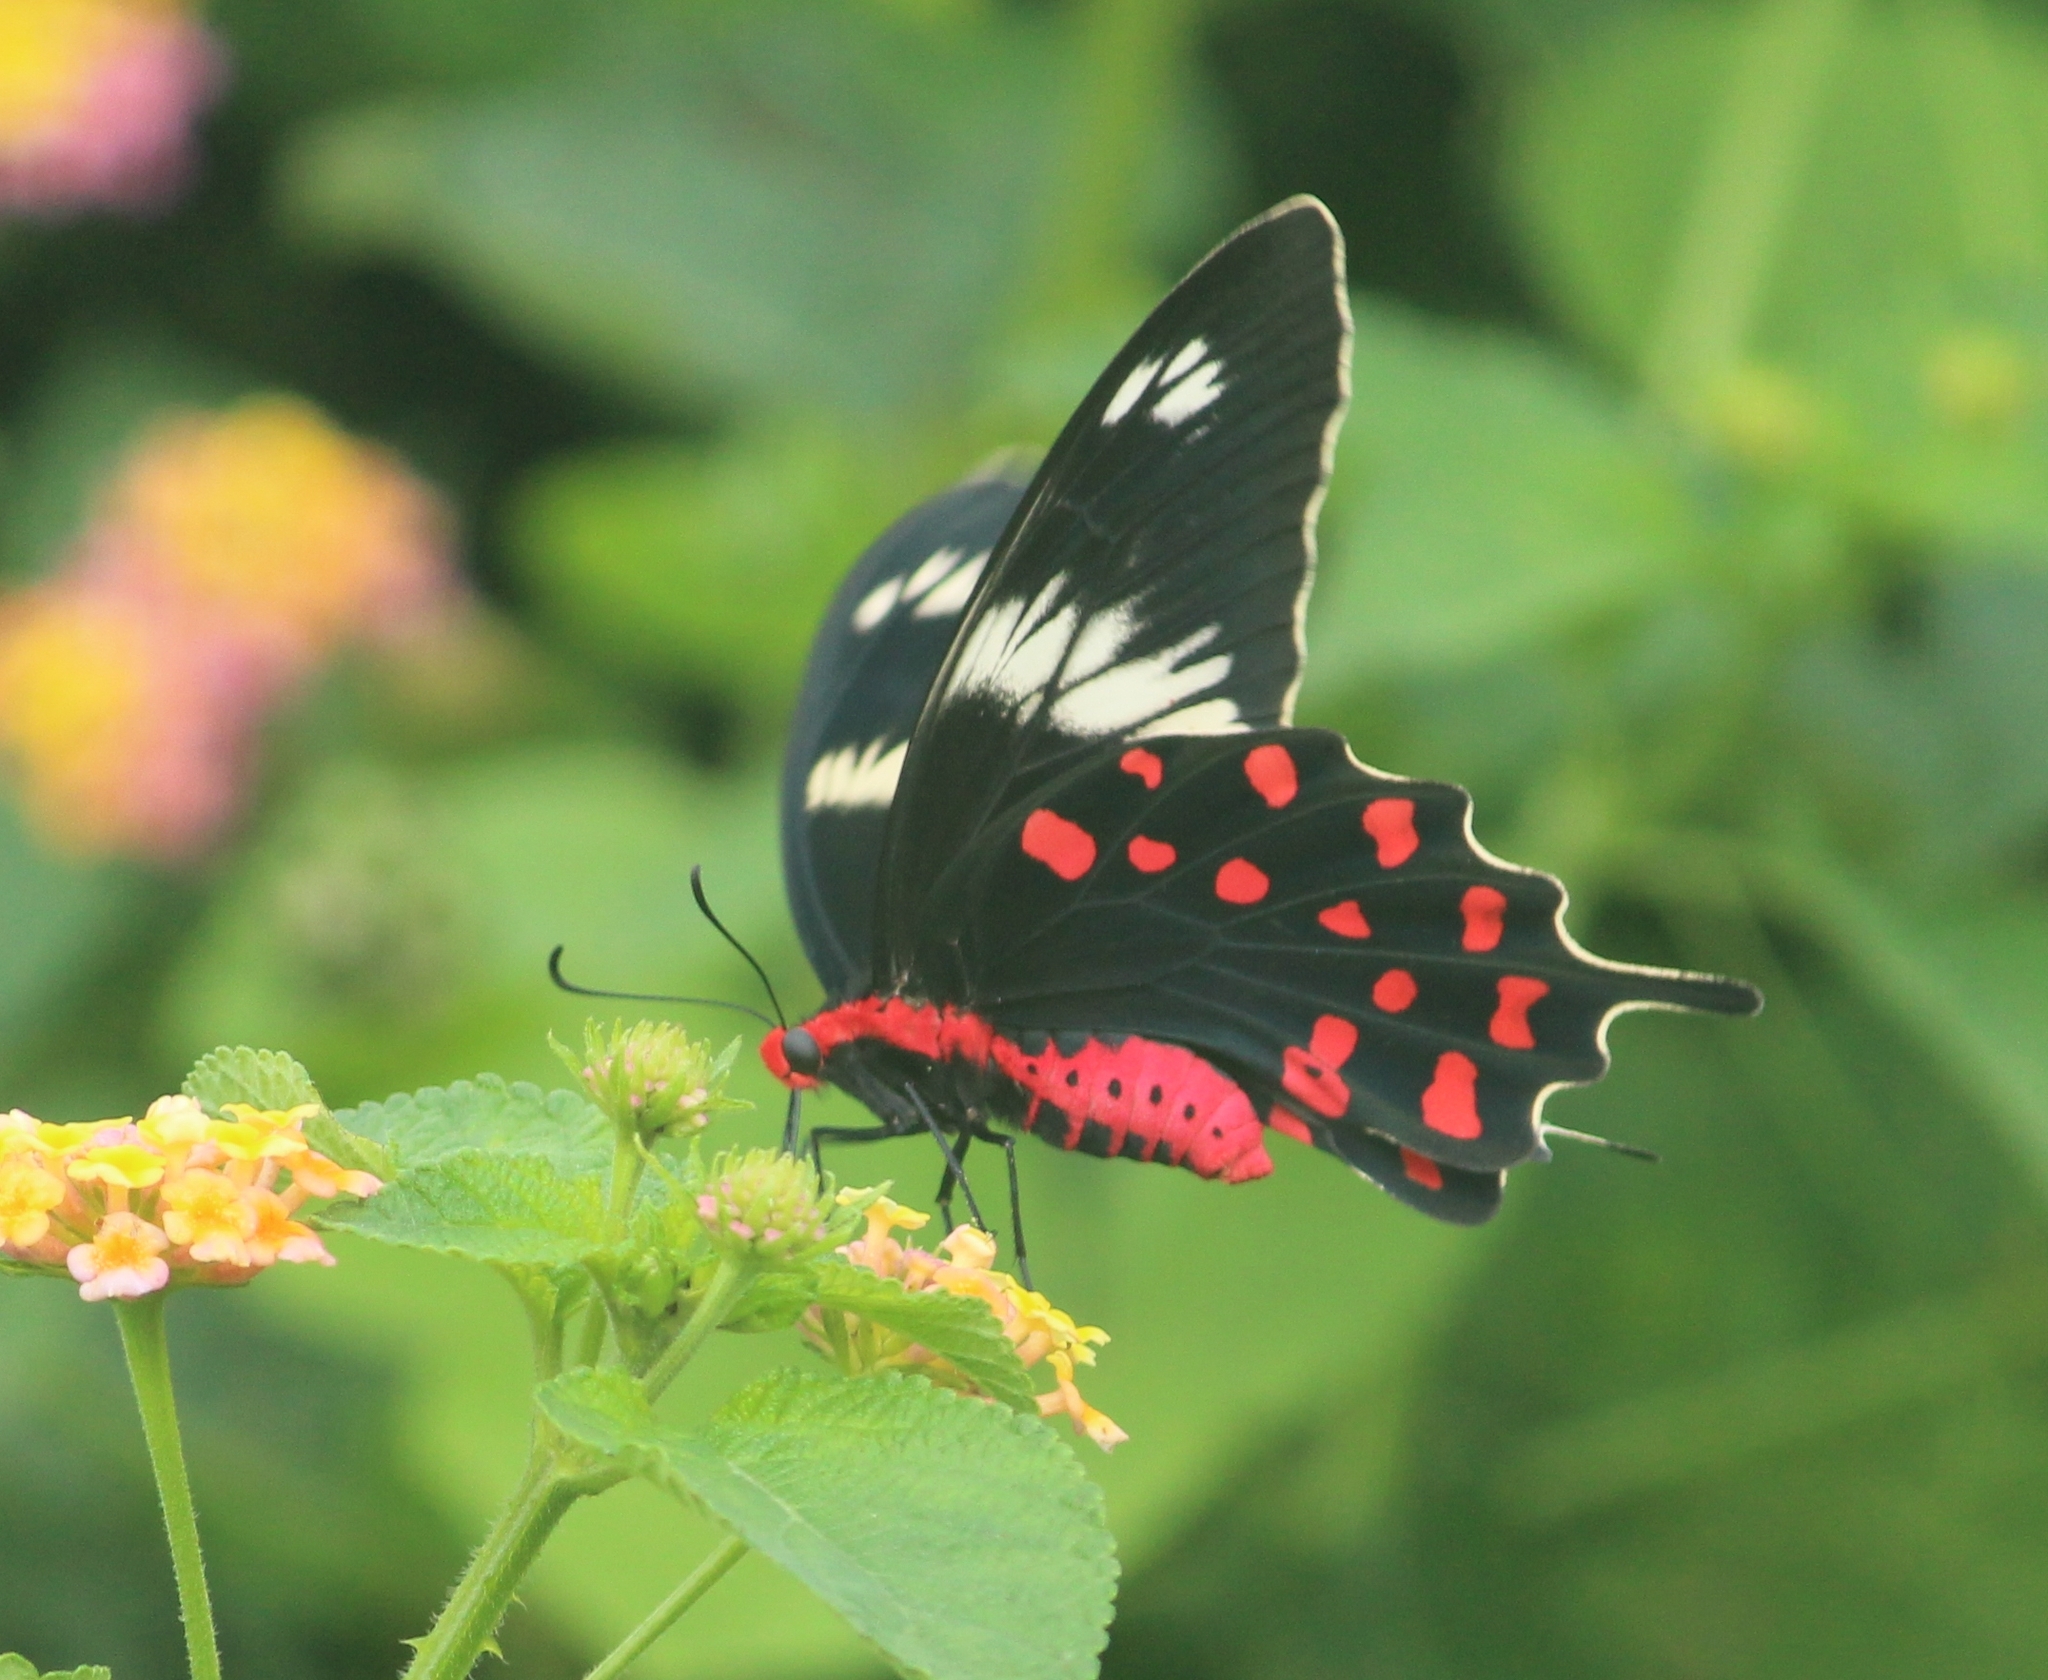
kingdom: Animalia
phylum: Arthropoda
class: Insecta
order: Lepidoptera
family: Papilionidae
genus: Pachliopta
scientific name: Pachliopta hector
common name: Crimson rose
